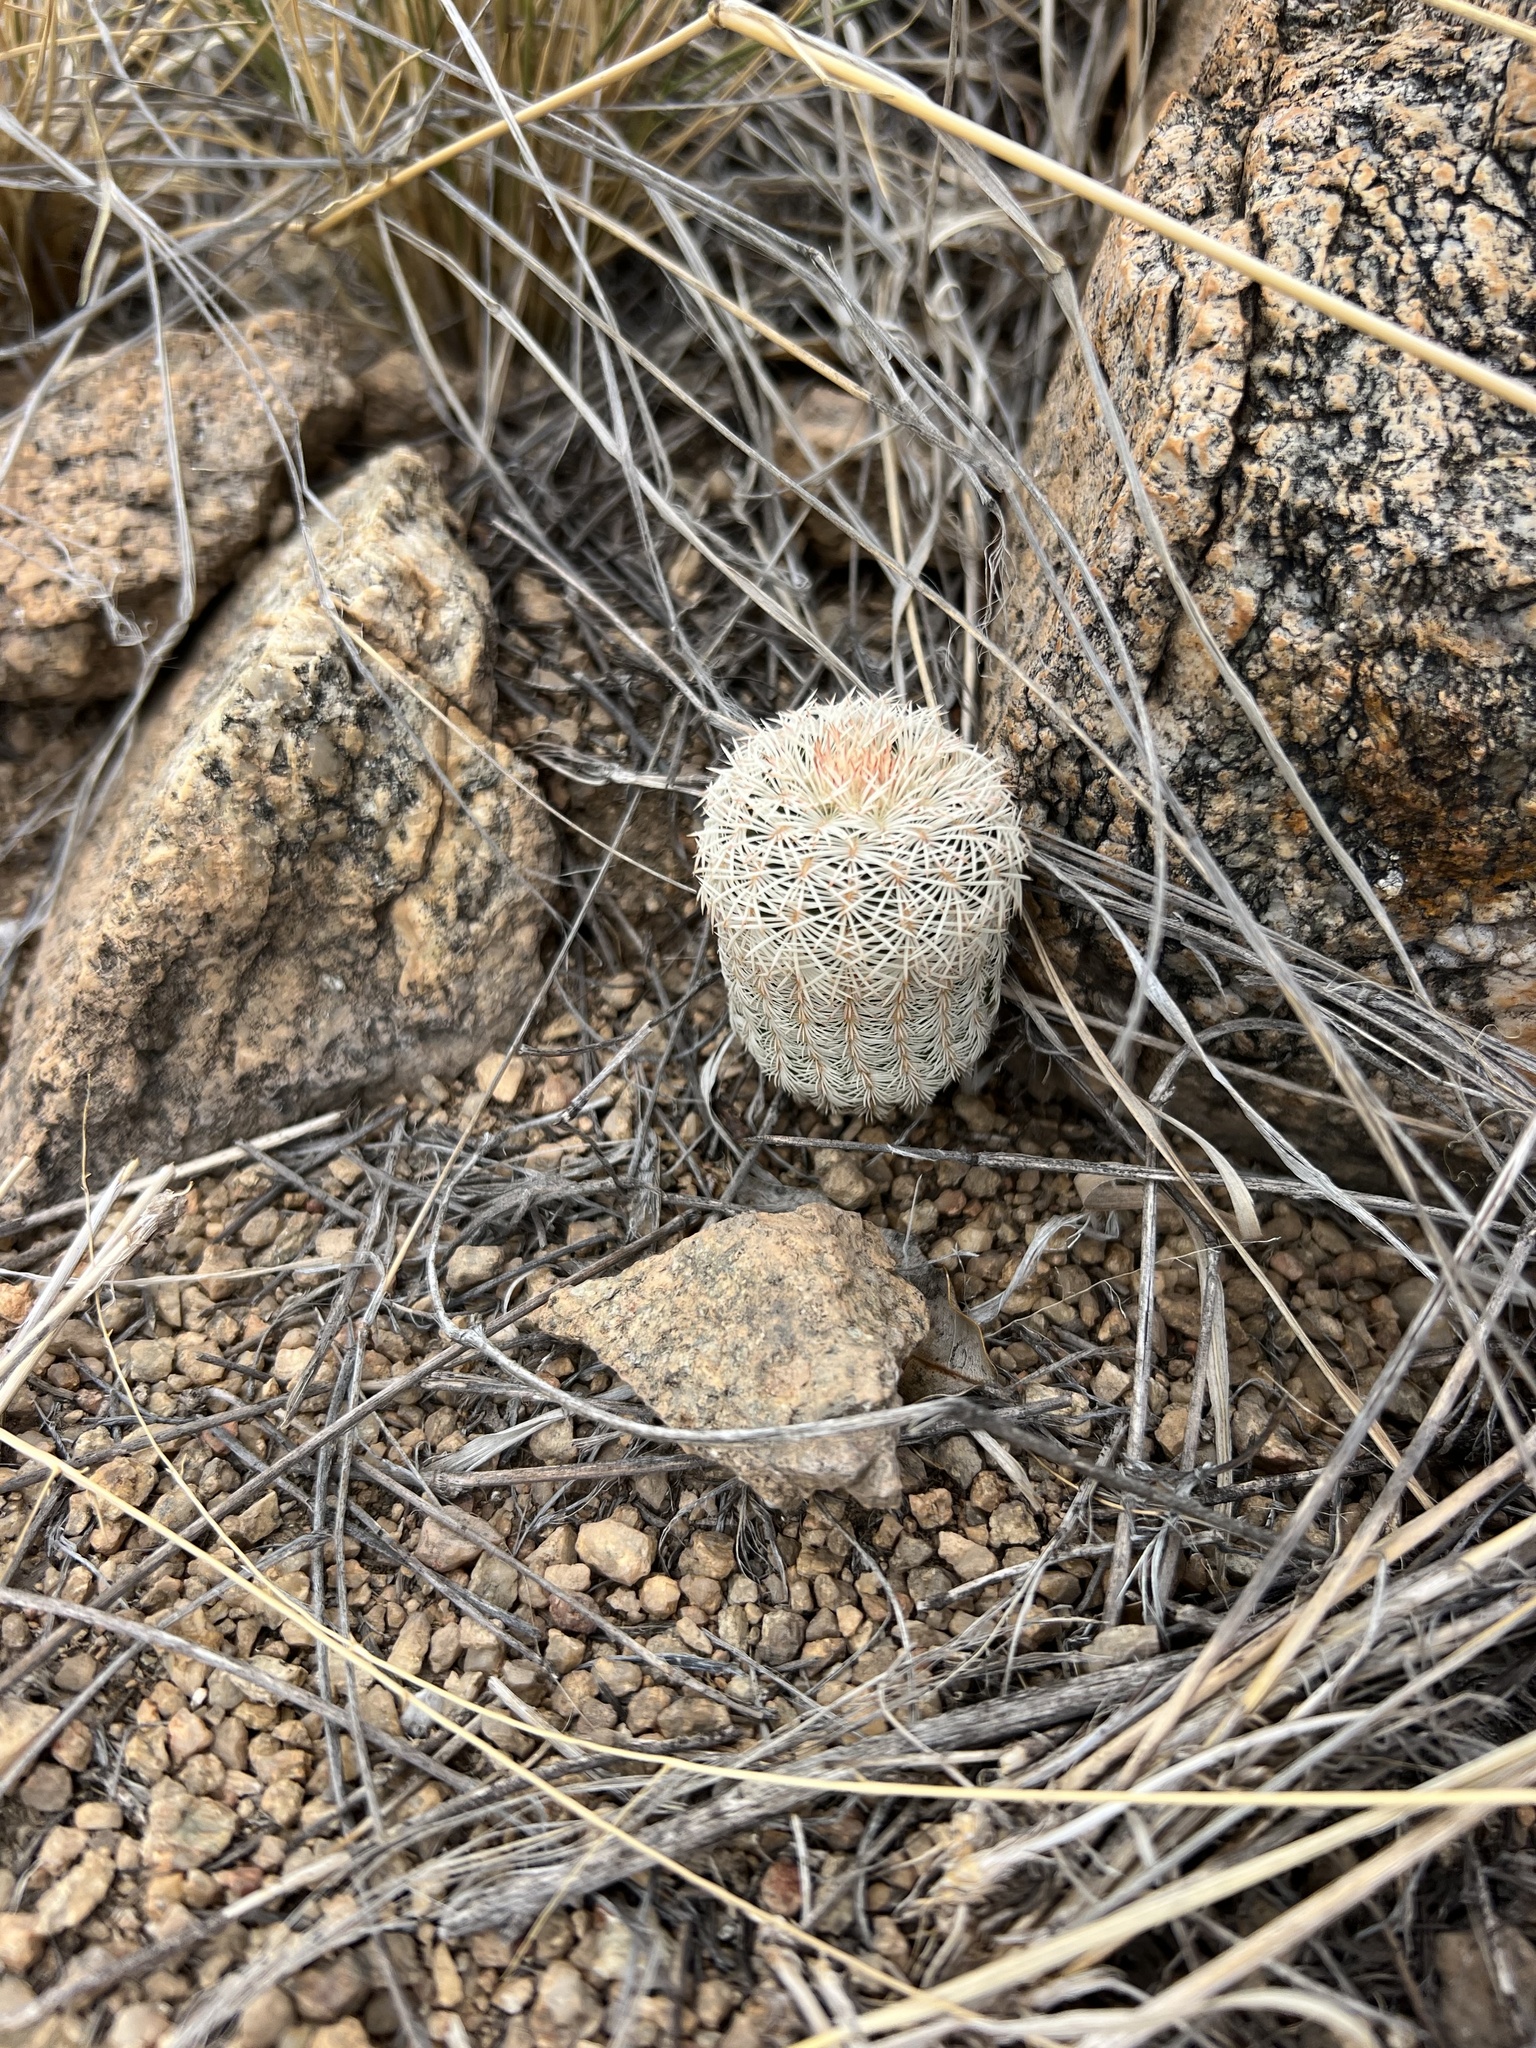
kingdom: Plantae
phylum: Tracheophyta
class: Magnoliopsida
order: Caryophyllales
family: Cactaceae
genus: Echinocereus
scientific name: Echinocereus rigidissimus
